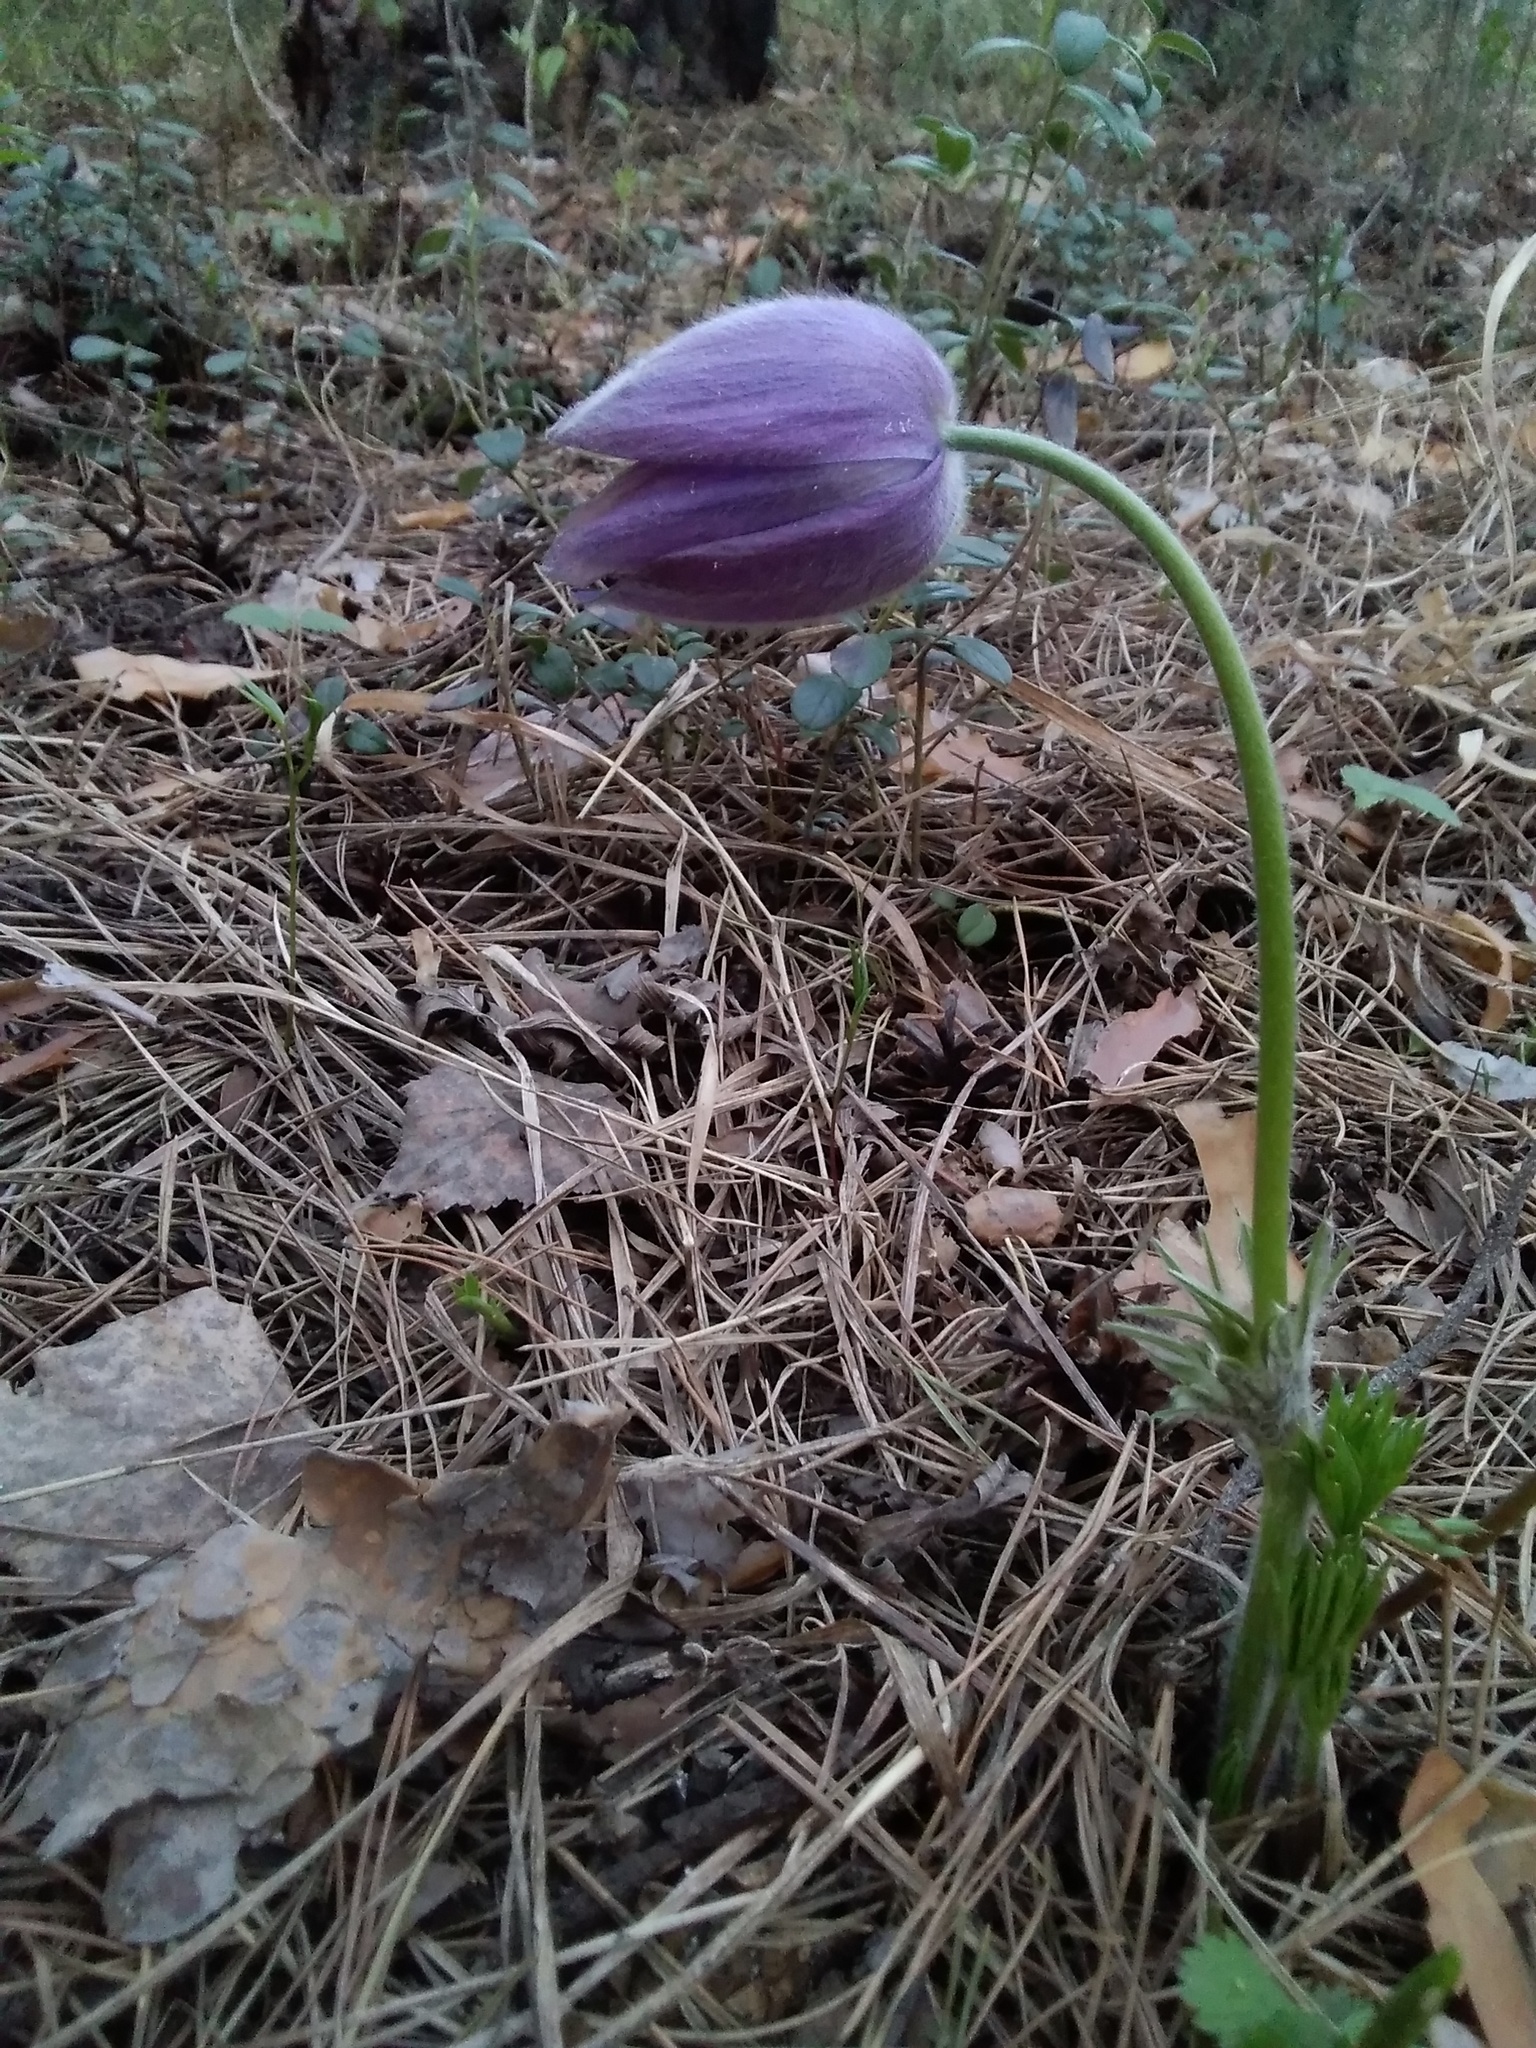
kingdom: Plantae
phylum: Tracheophyta
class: Magnoliopsida
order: Ranunculales
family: Ranunculaceae
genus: Pulsatilla
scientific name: Pulsatilla patens
